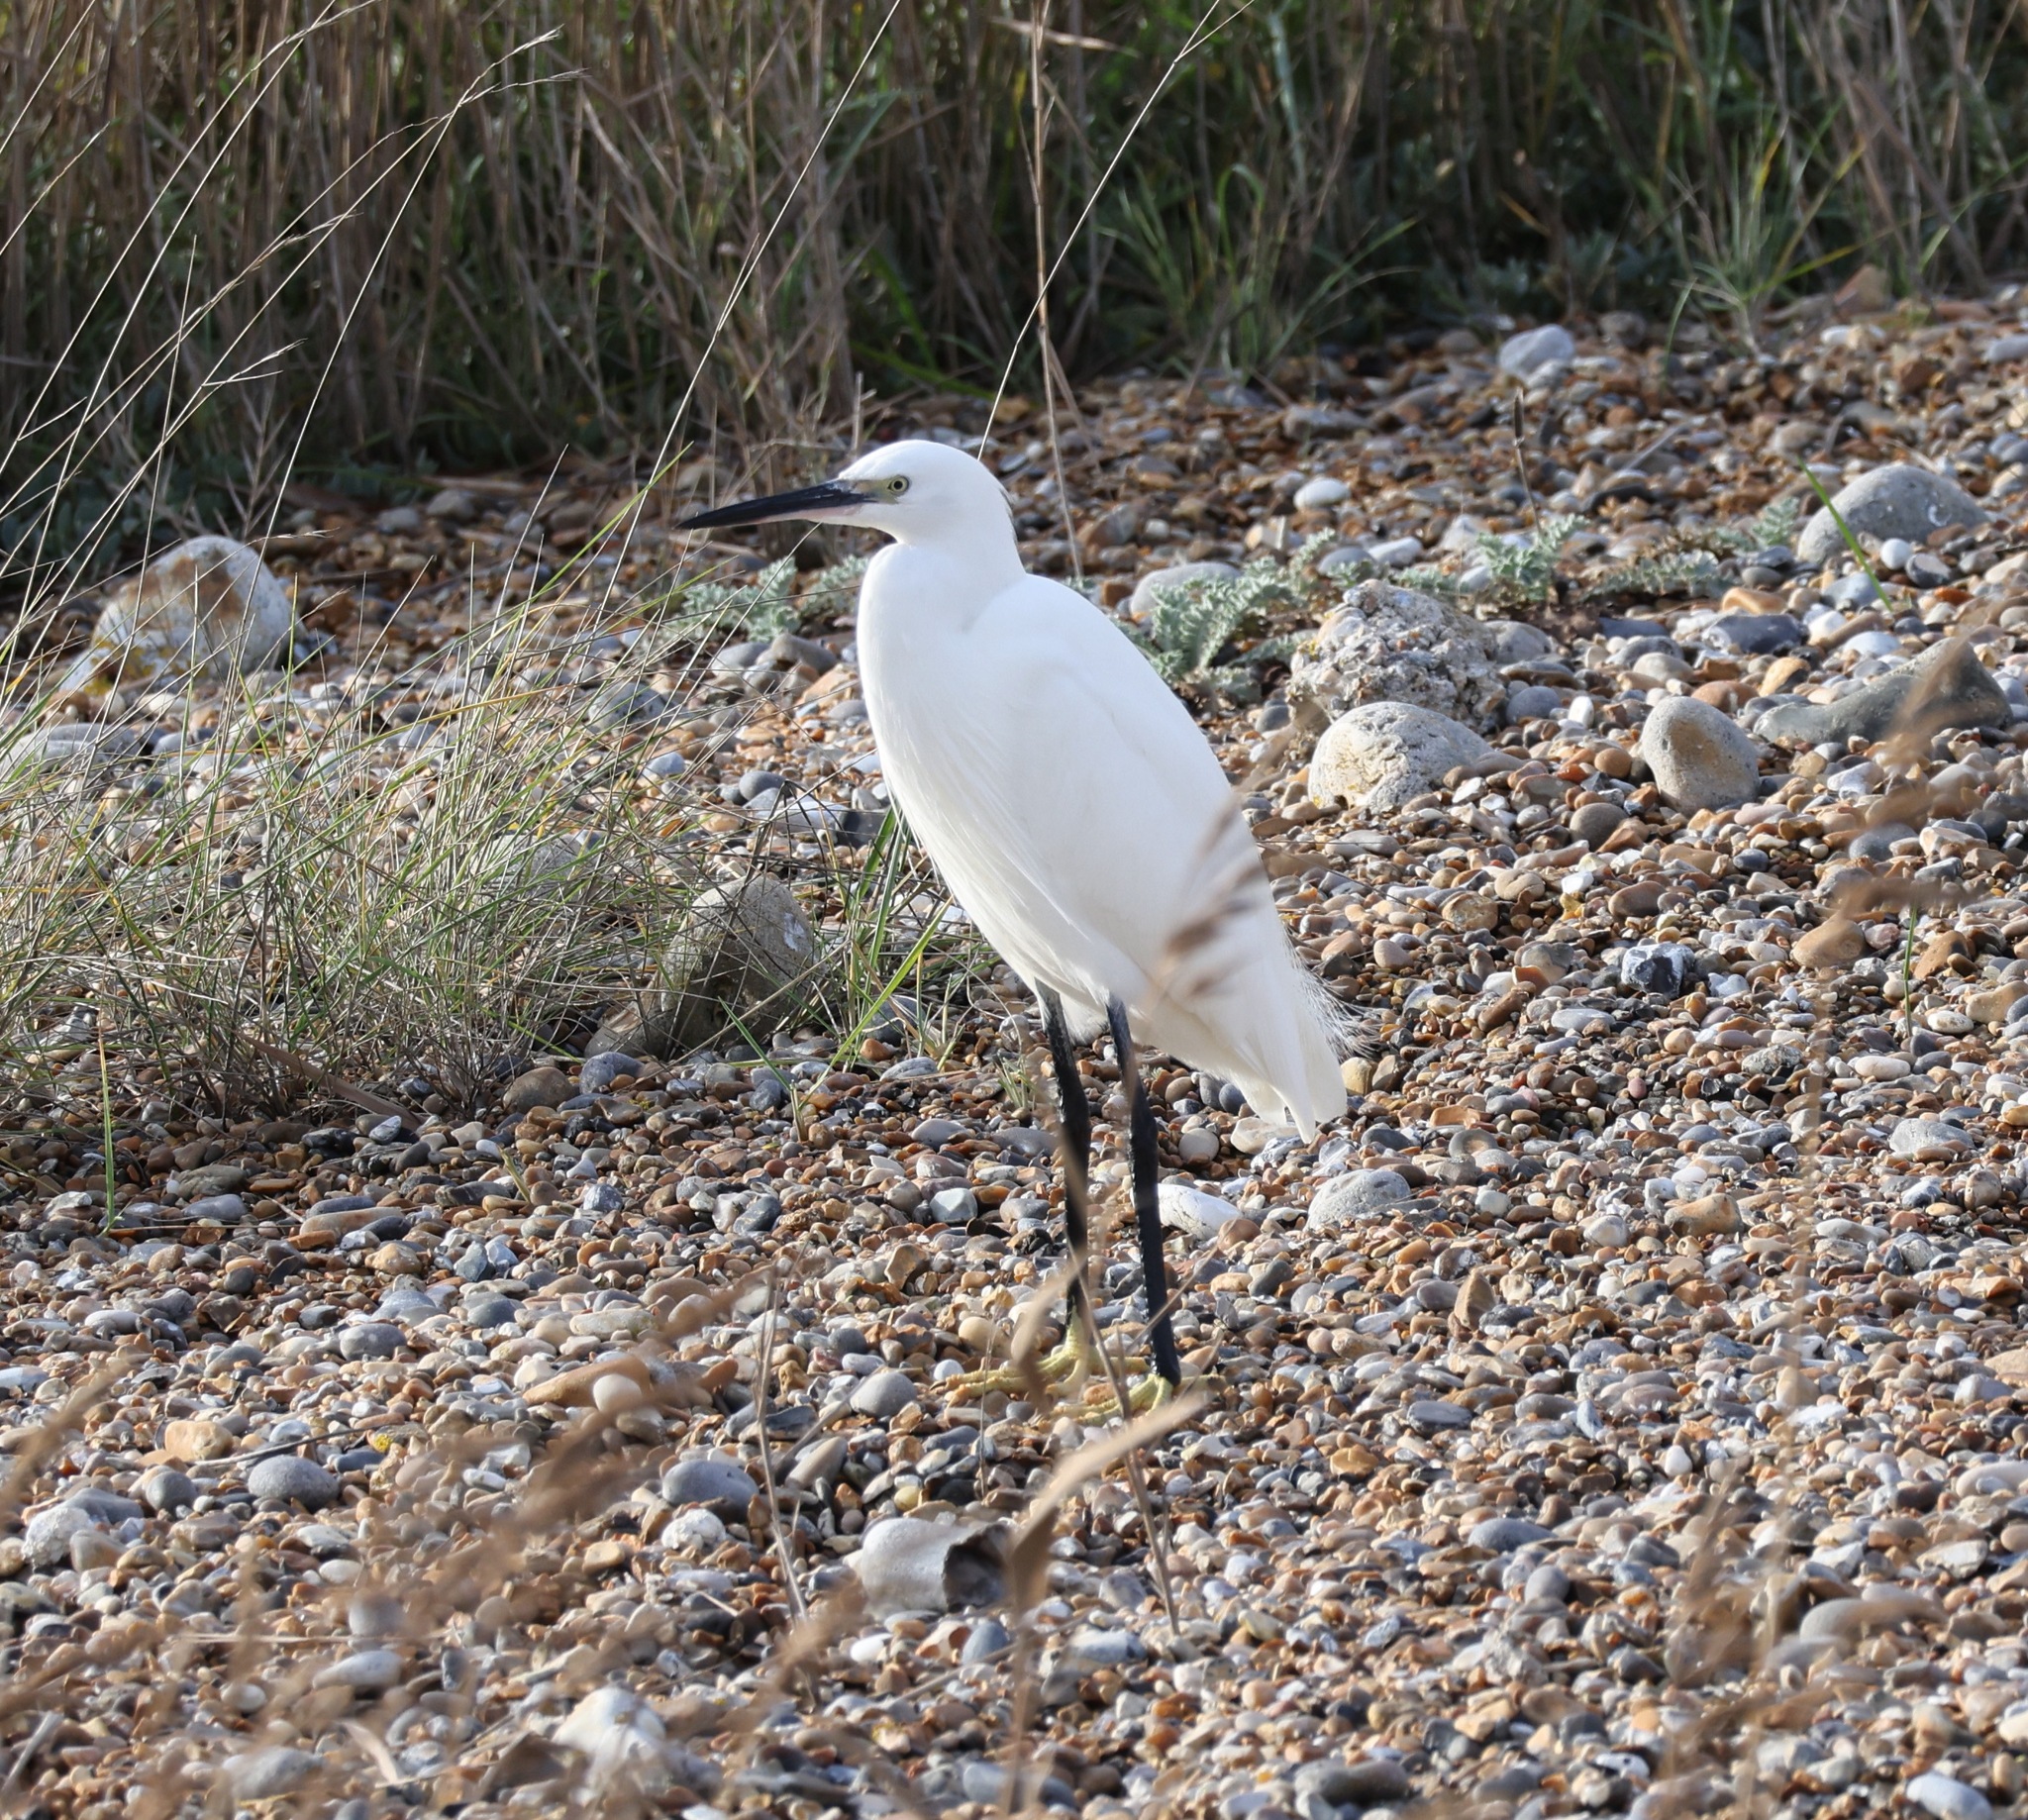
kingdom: Animalia
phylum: Chordata
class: Aves
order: Pelecaniformes
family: Ardeidae
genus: Egretta
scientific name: Egretta garzetta
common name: Little egret
